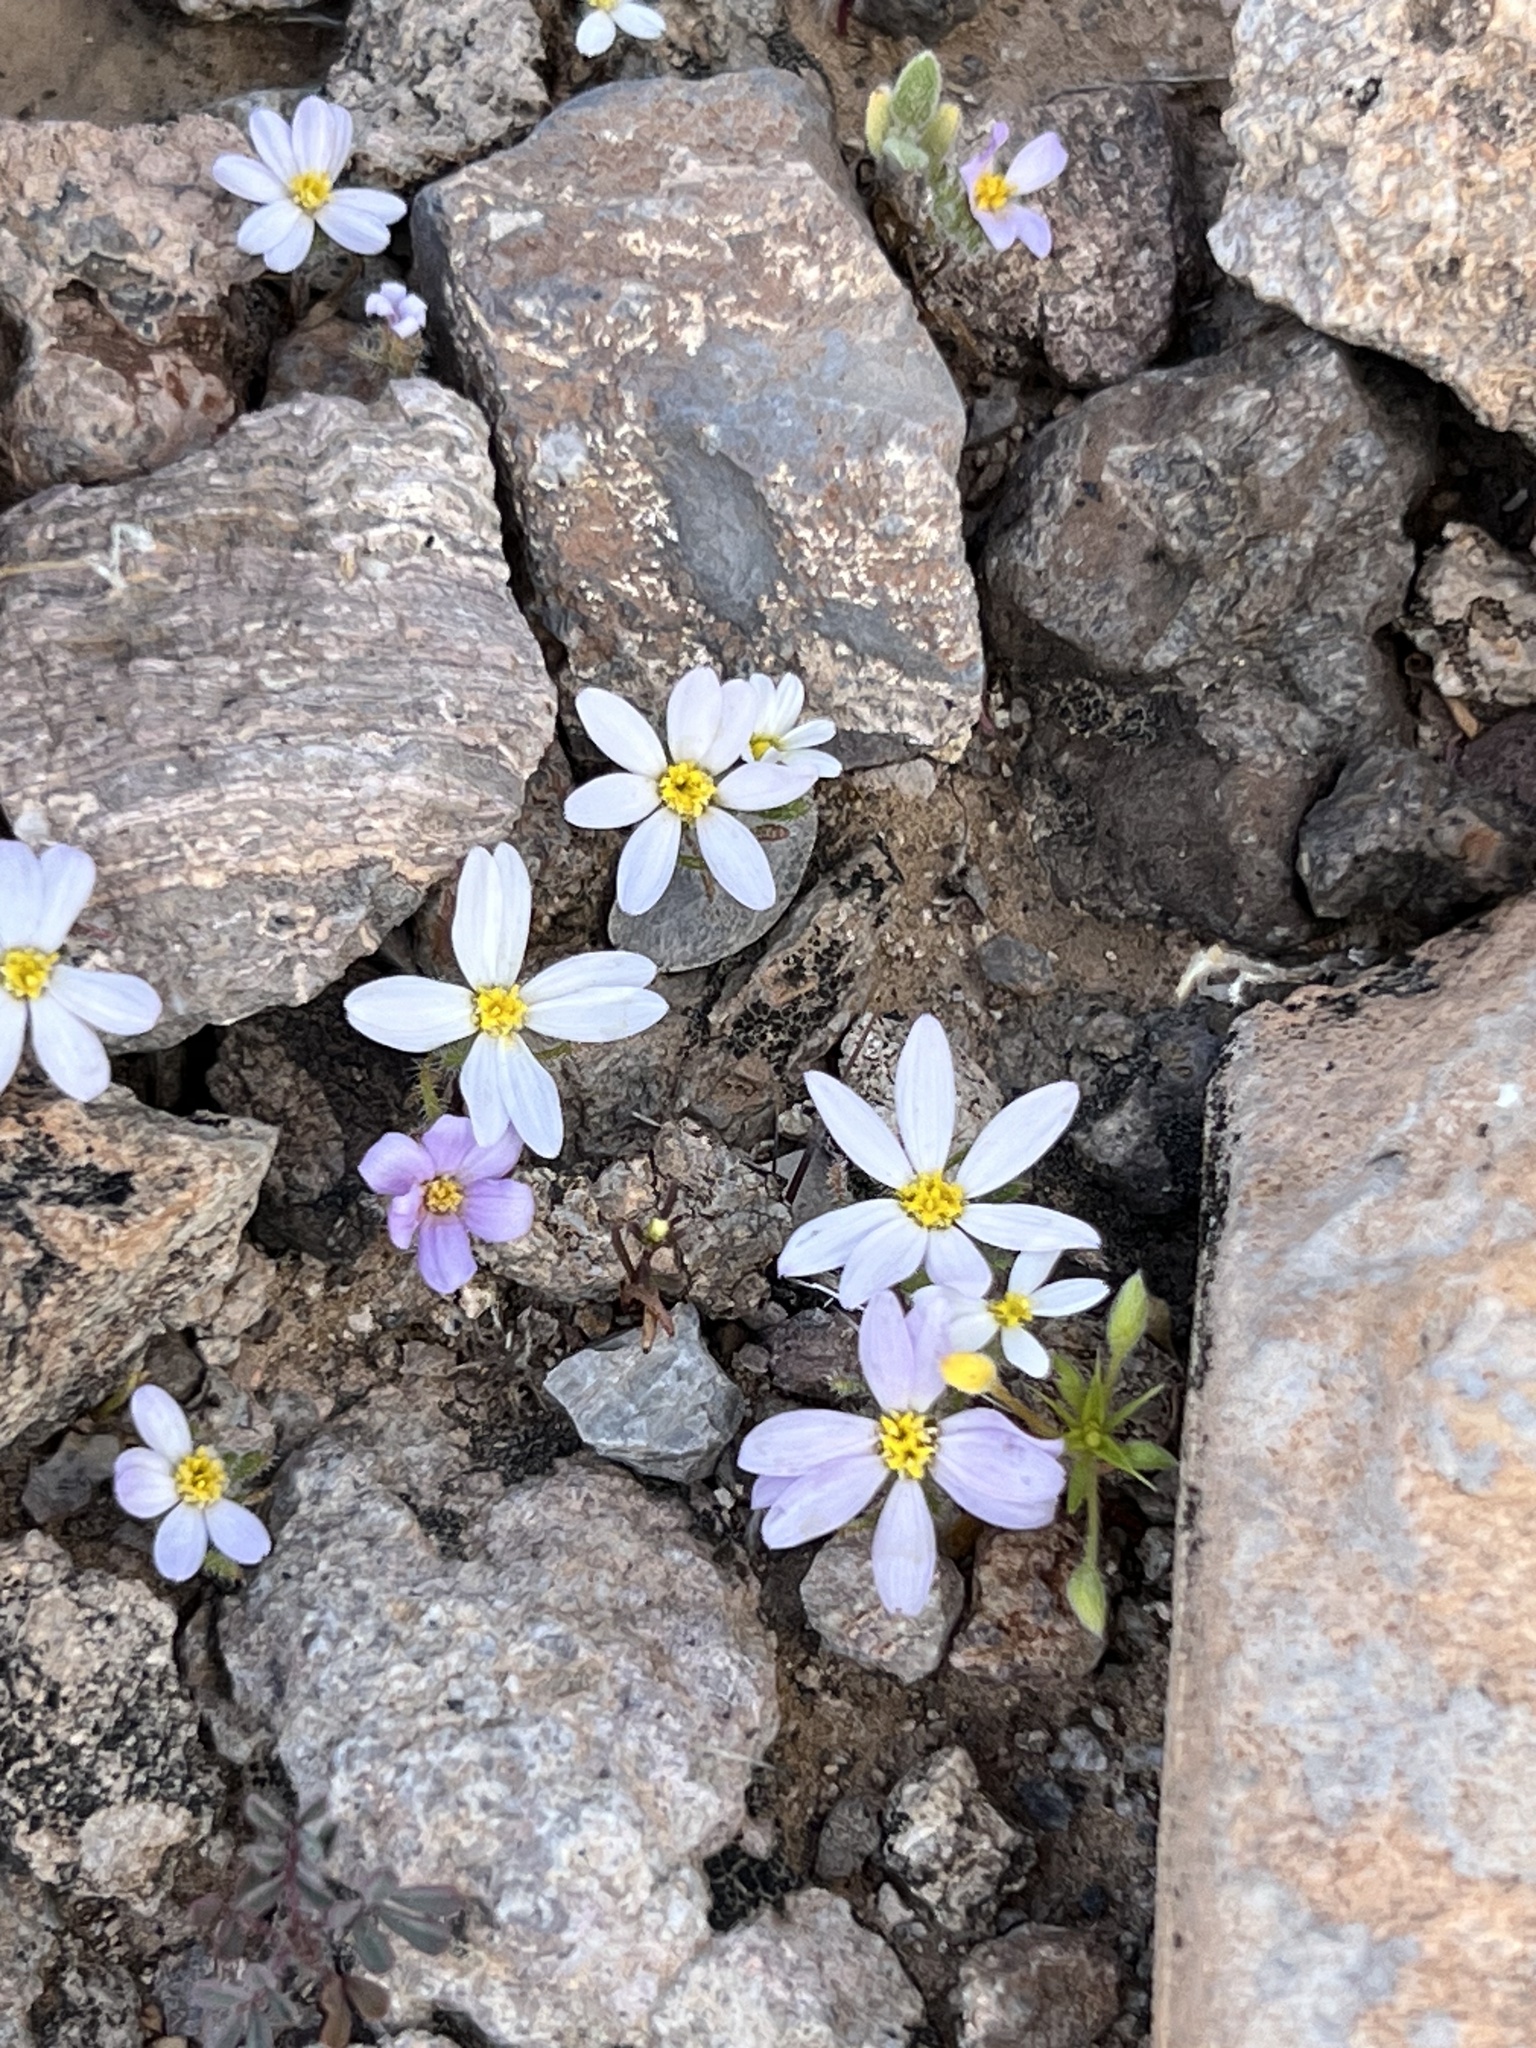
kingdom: Plantae
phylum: Tracheophyta
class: Magnoliopsida
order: Asterales
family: Asteraceae
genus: Monoptilon
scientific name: Monoptilon bellioides
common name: Bristly desertstar
